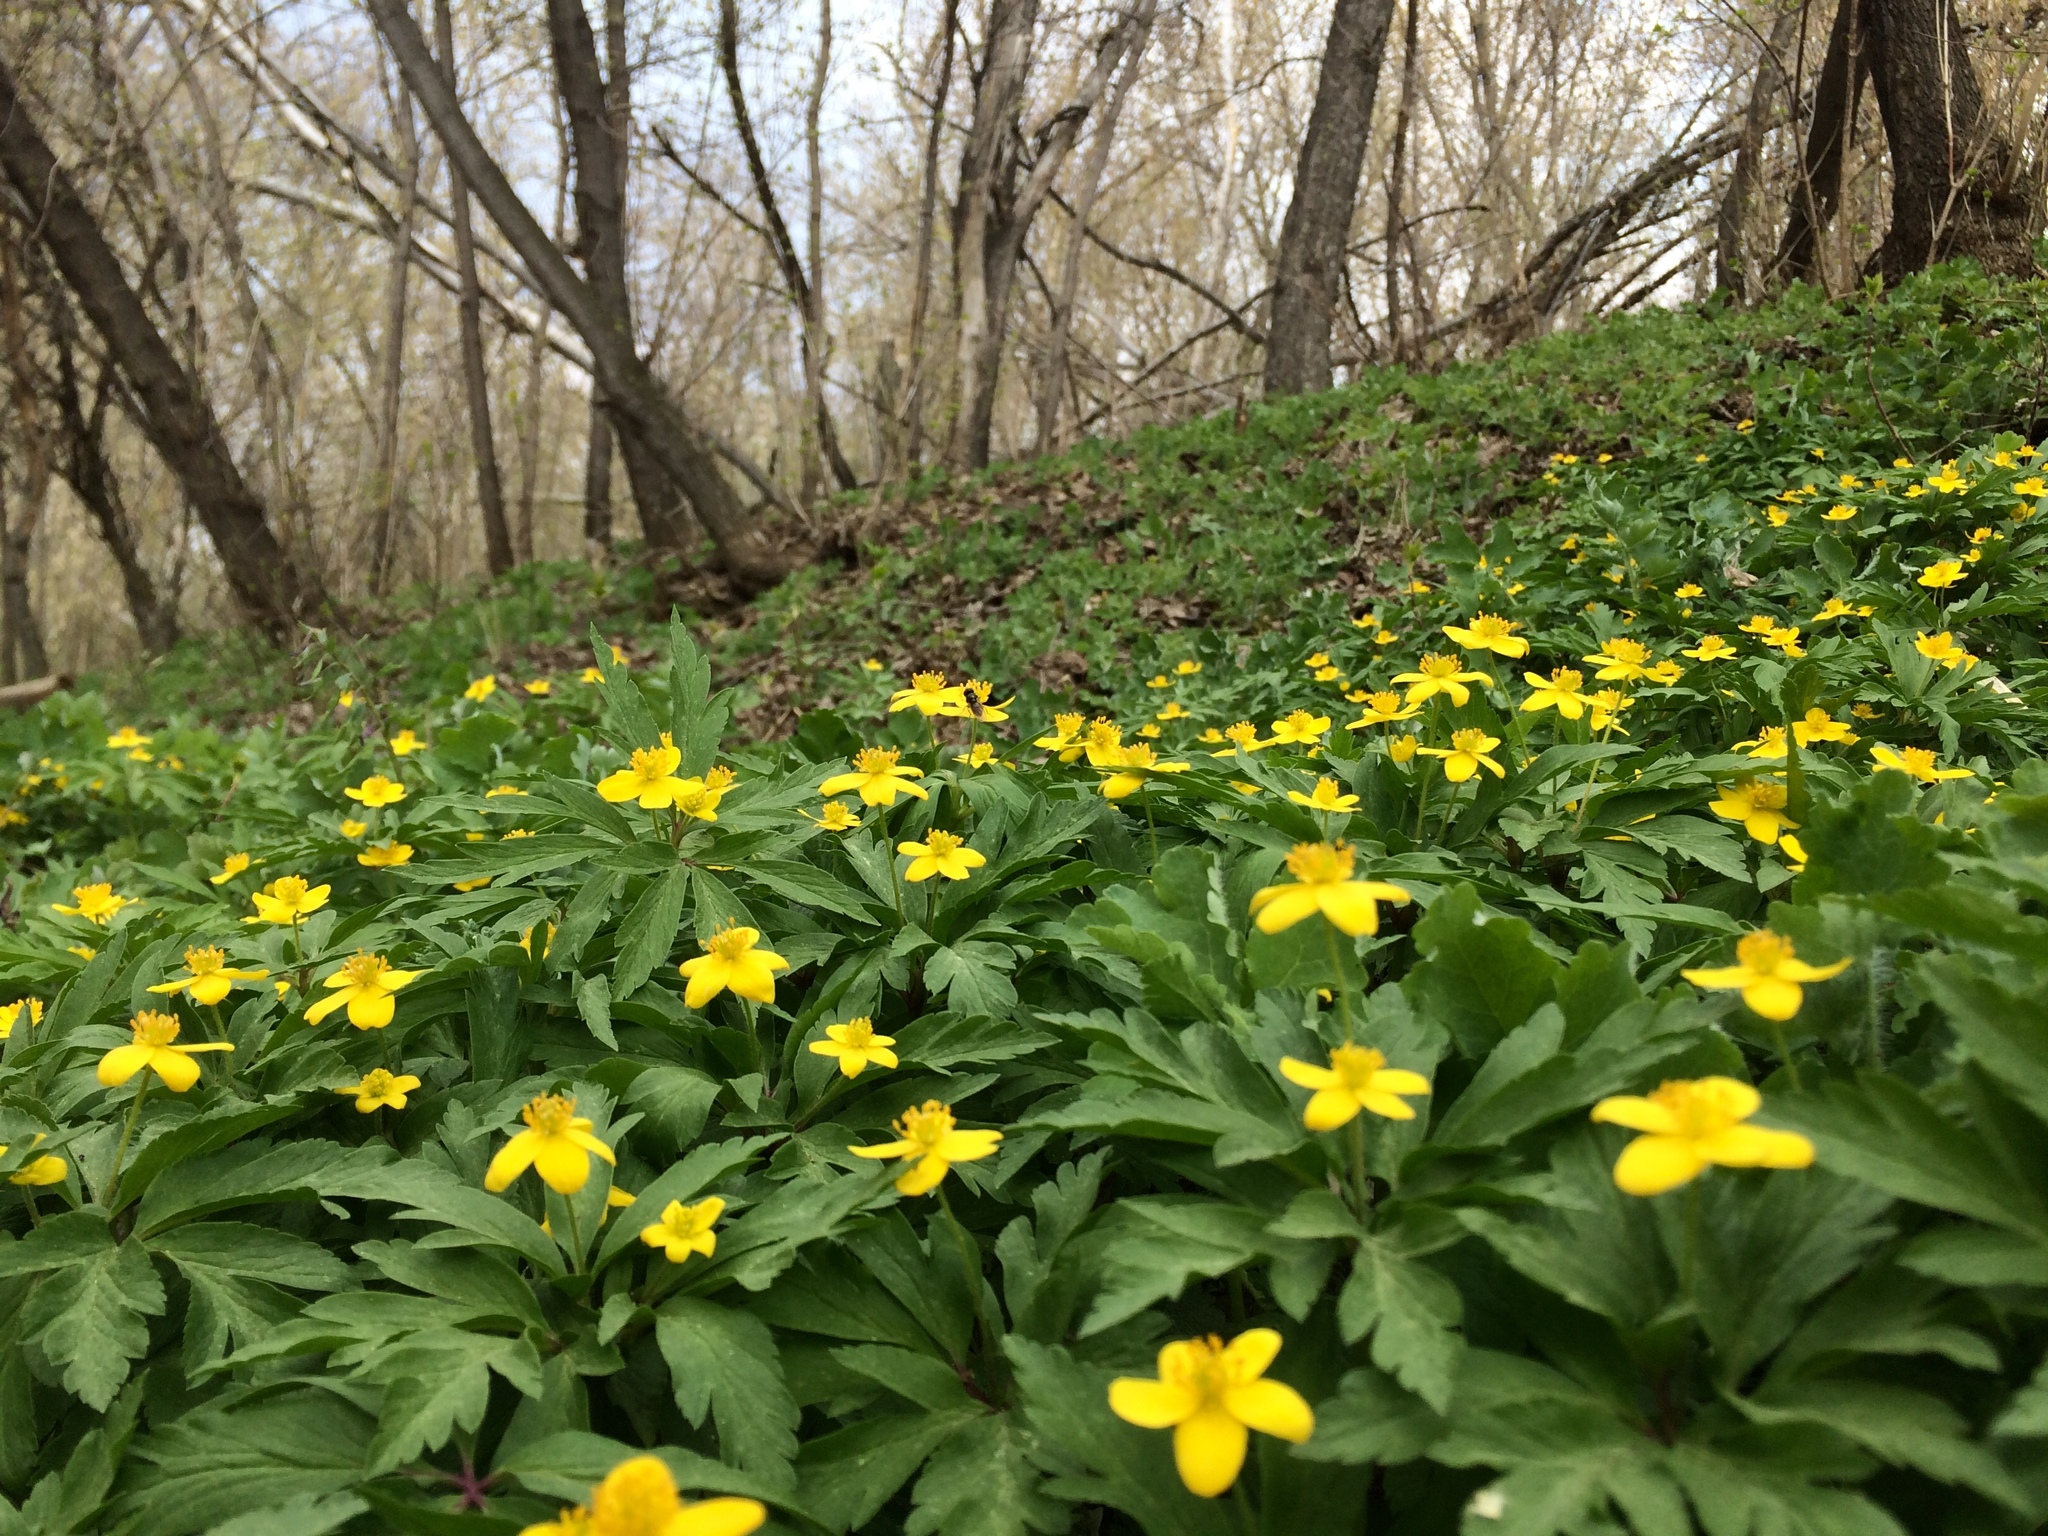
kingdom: Plantae
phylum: Tracheophyta
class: Magnoliopsida
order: Ranunculales
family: Ranunculaceae
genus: Anemone
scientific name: Anemone ranunculoides
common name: Yellow anemone
